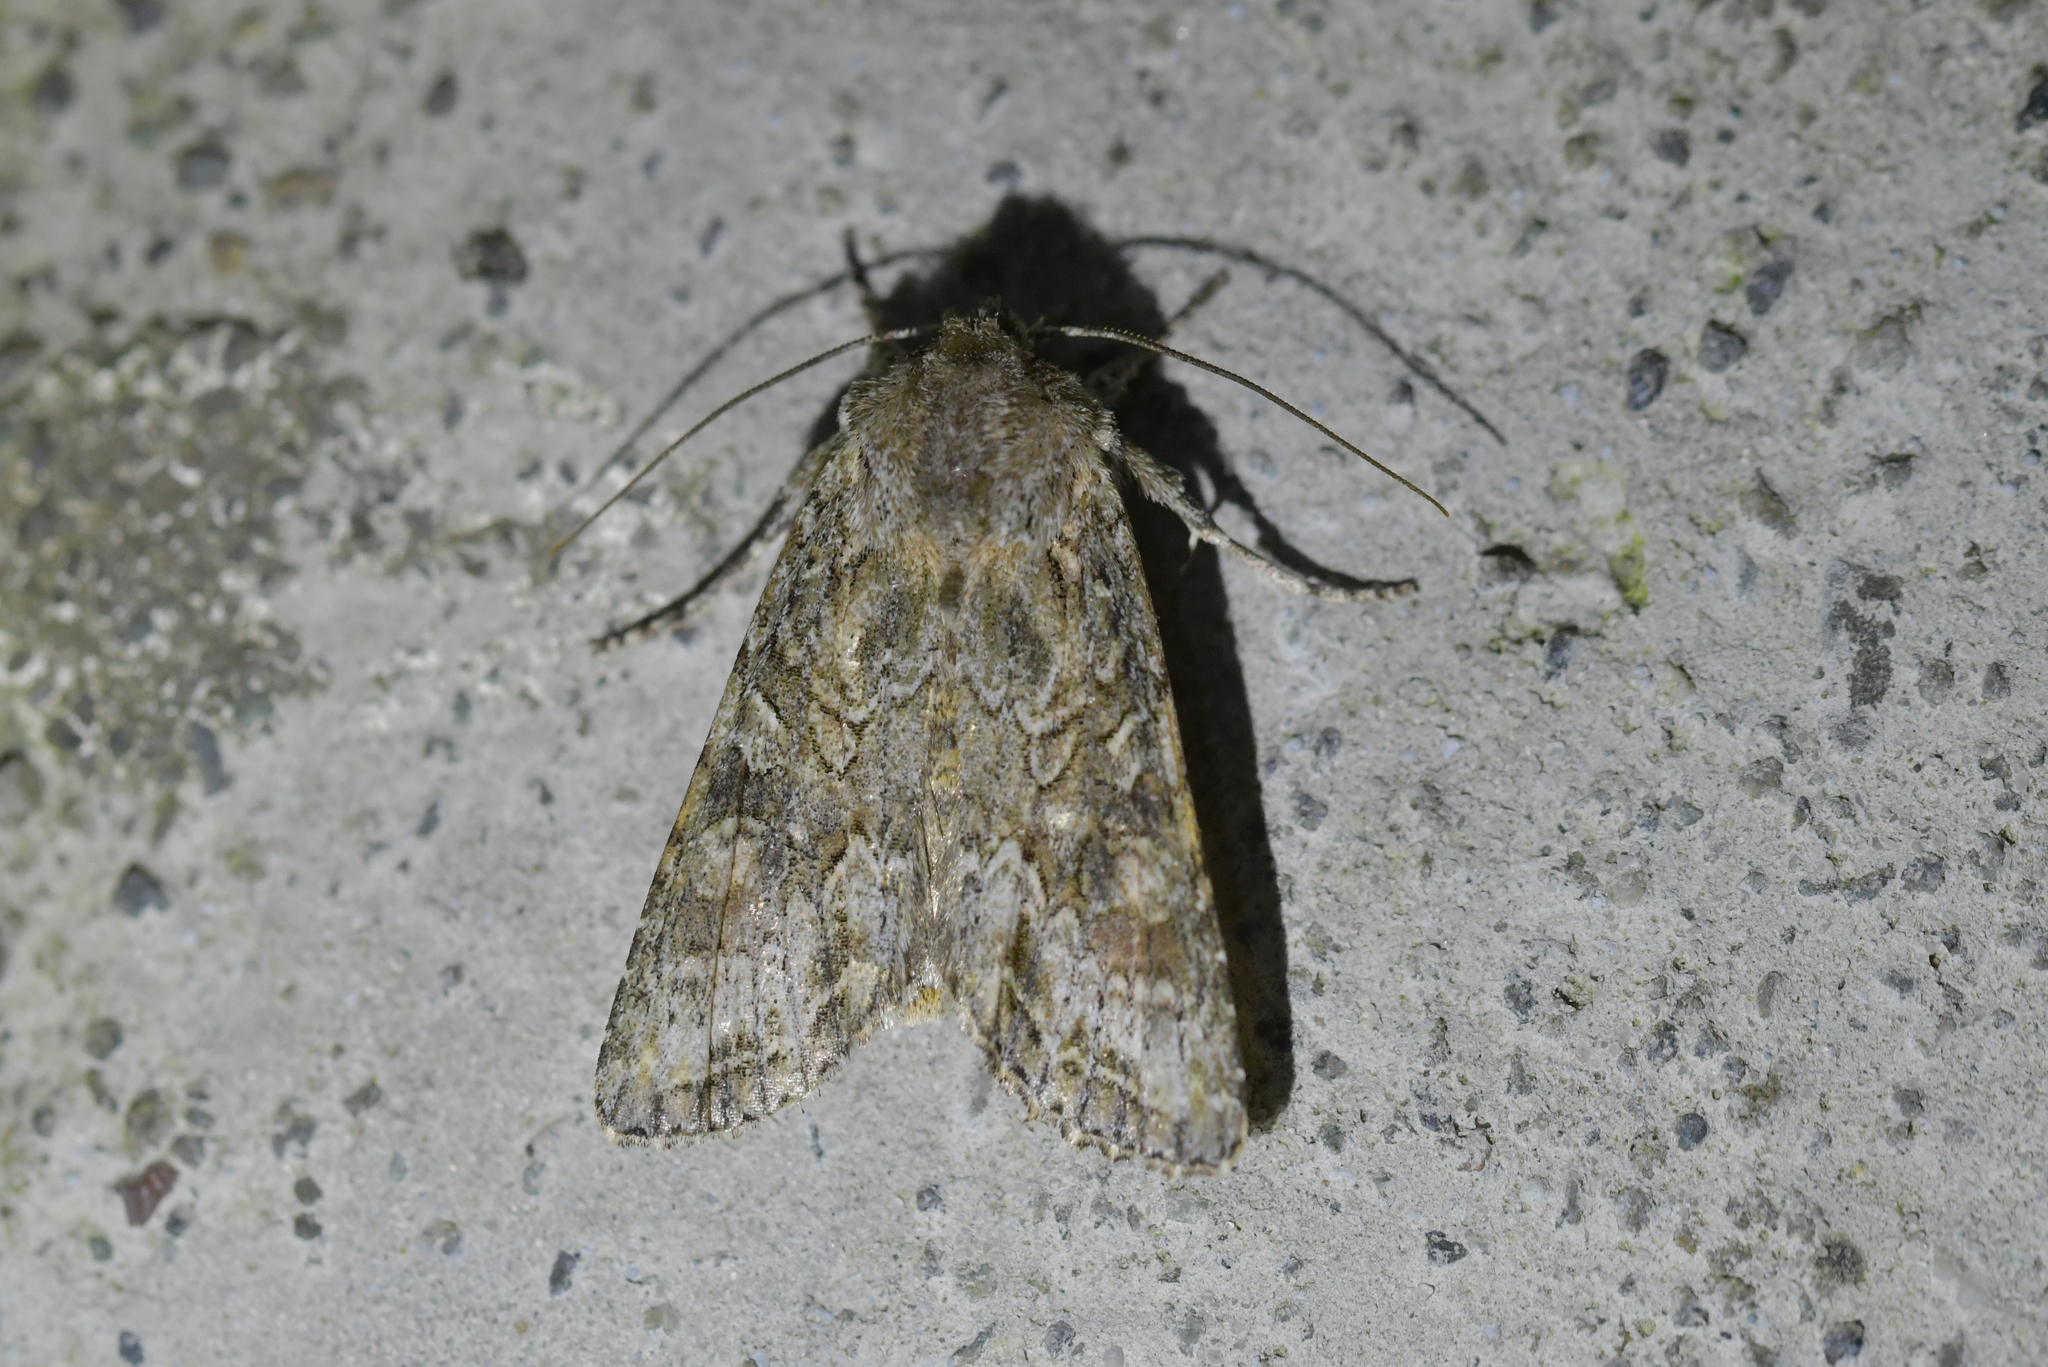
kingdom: Animalia
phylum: Arthropoda
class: Insecta
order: Lepidoptera
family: Noctuidae
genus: Ichneutica
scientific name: Ichneutica mutans
